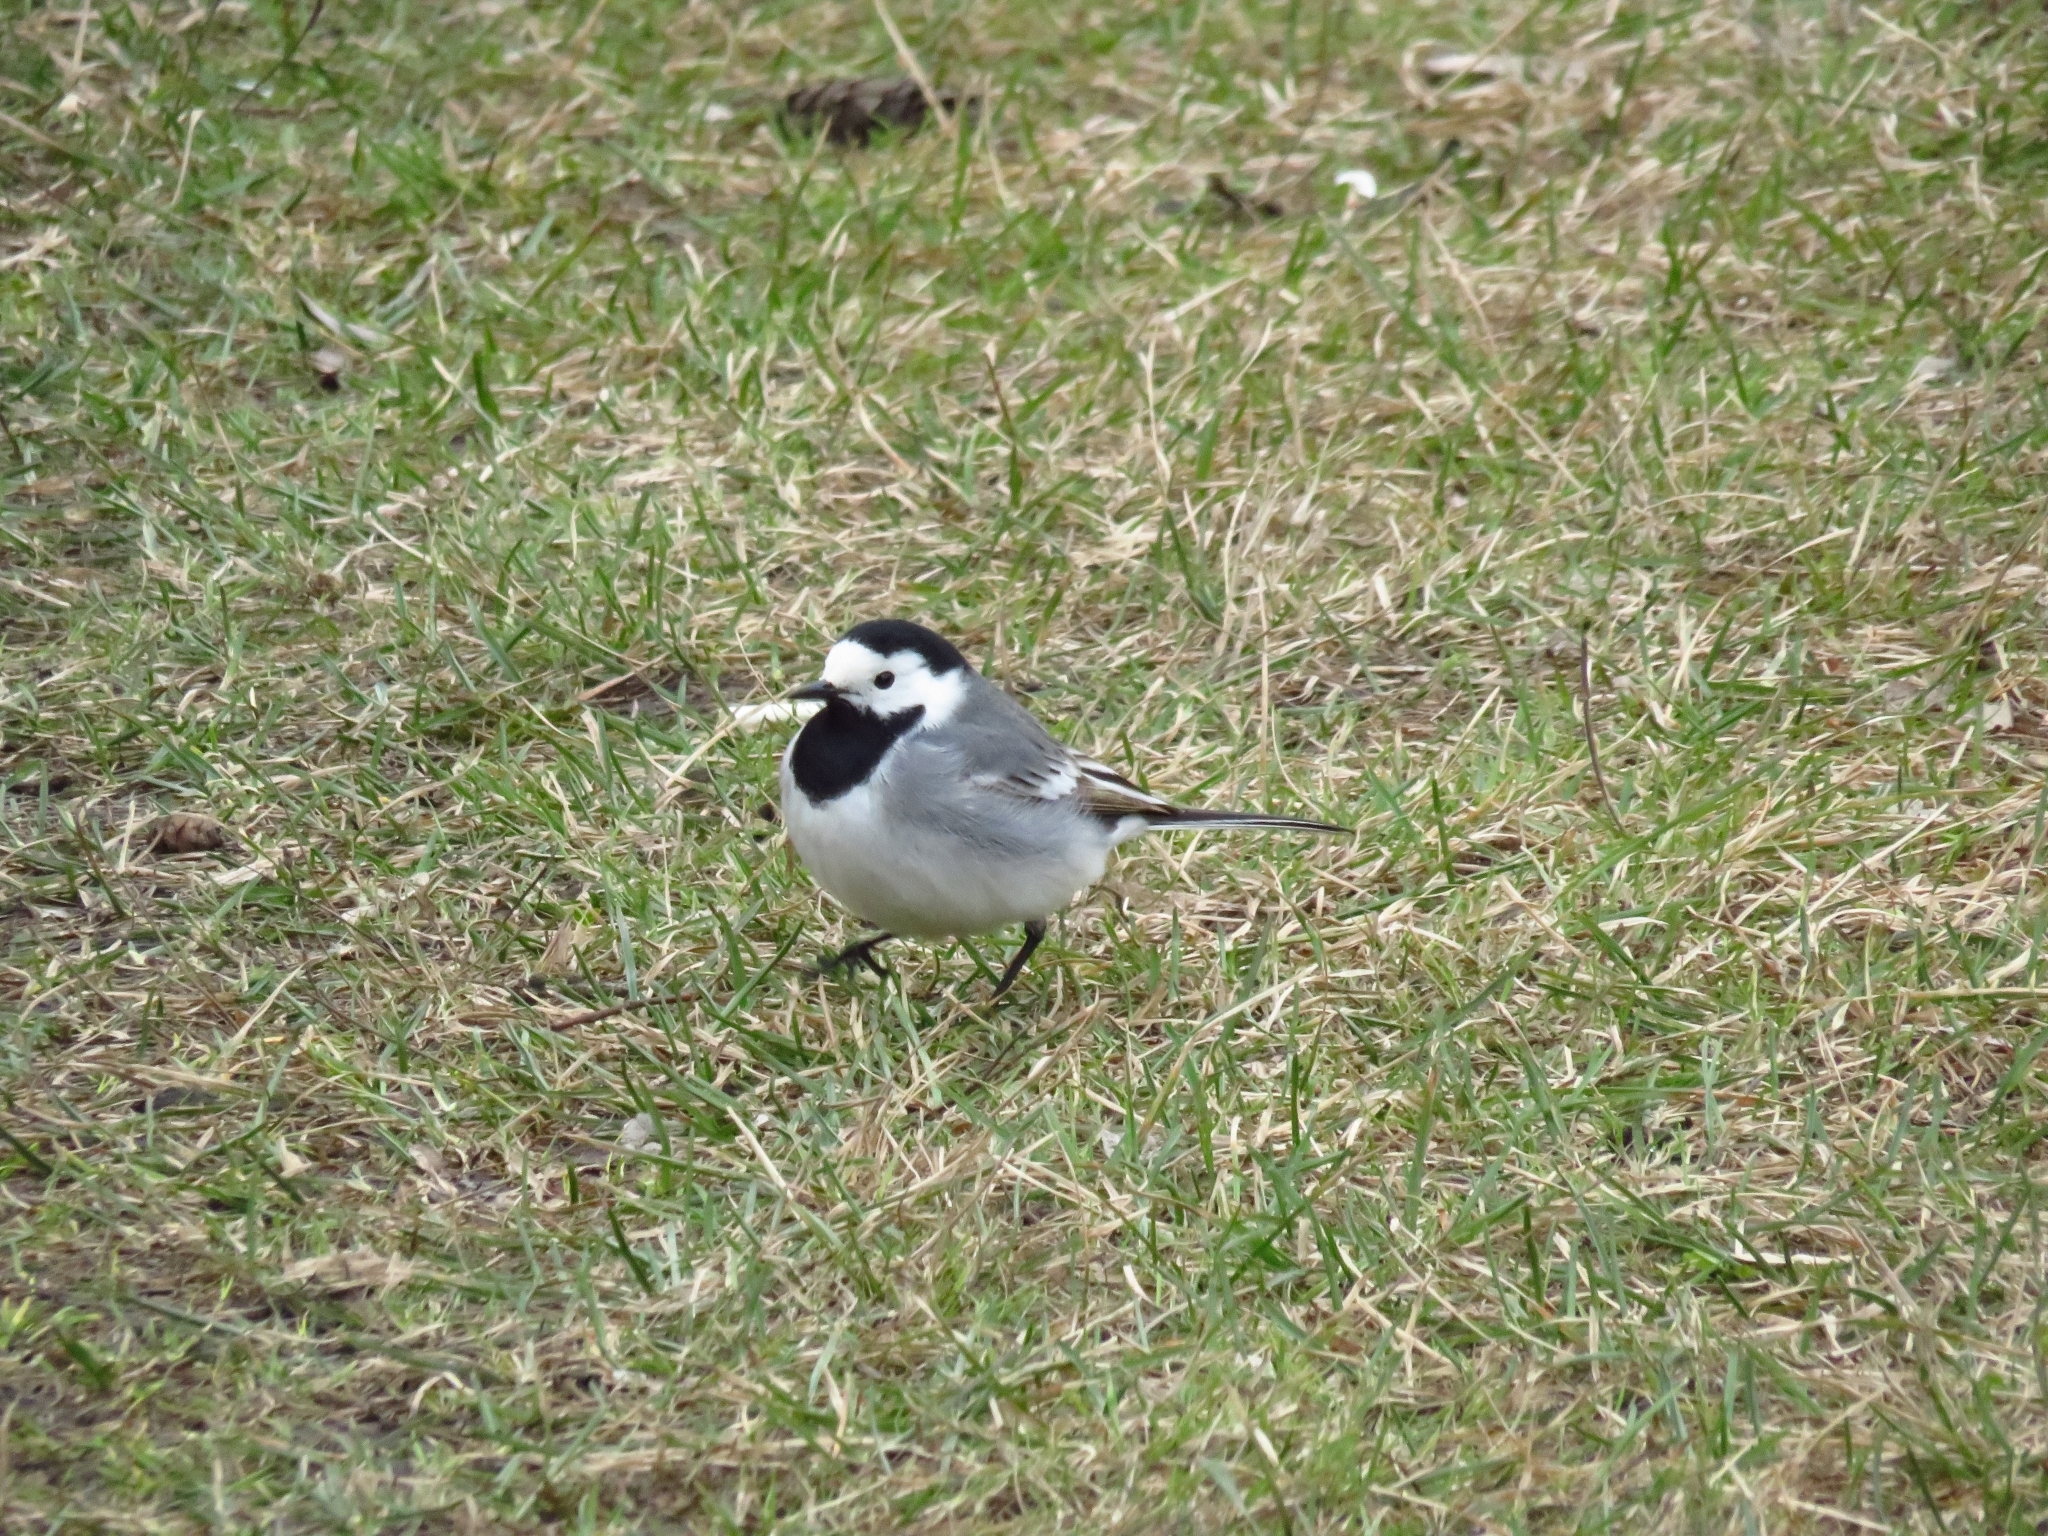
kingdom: Animalia
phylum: Chordata
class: Aves
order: Passeriformes
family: Motacillidae
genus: Motacilla
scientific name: Motacilla alba
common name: White wagtail
